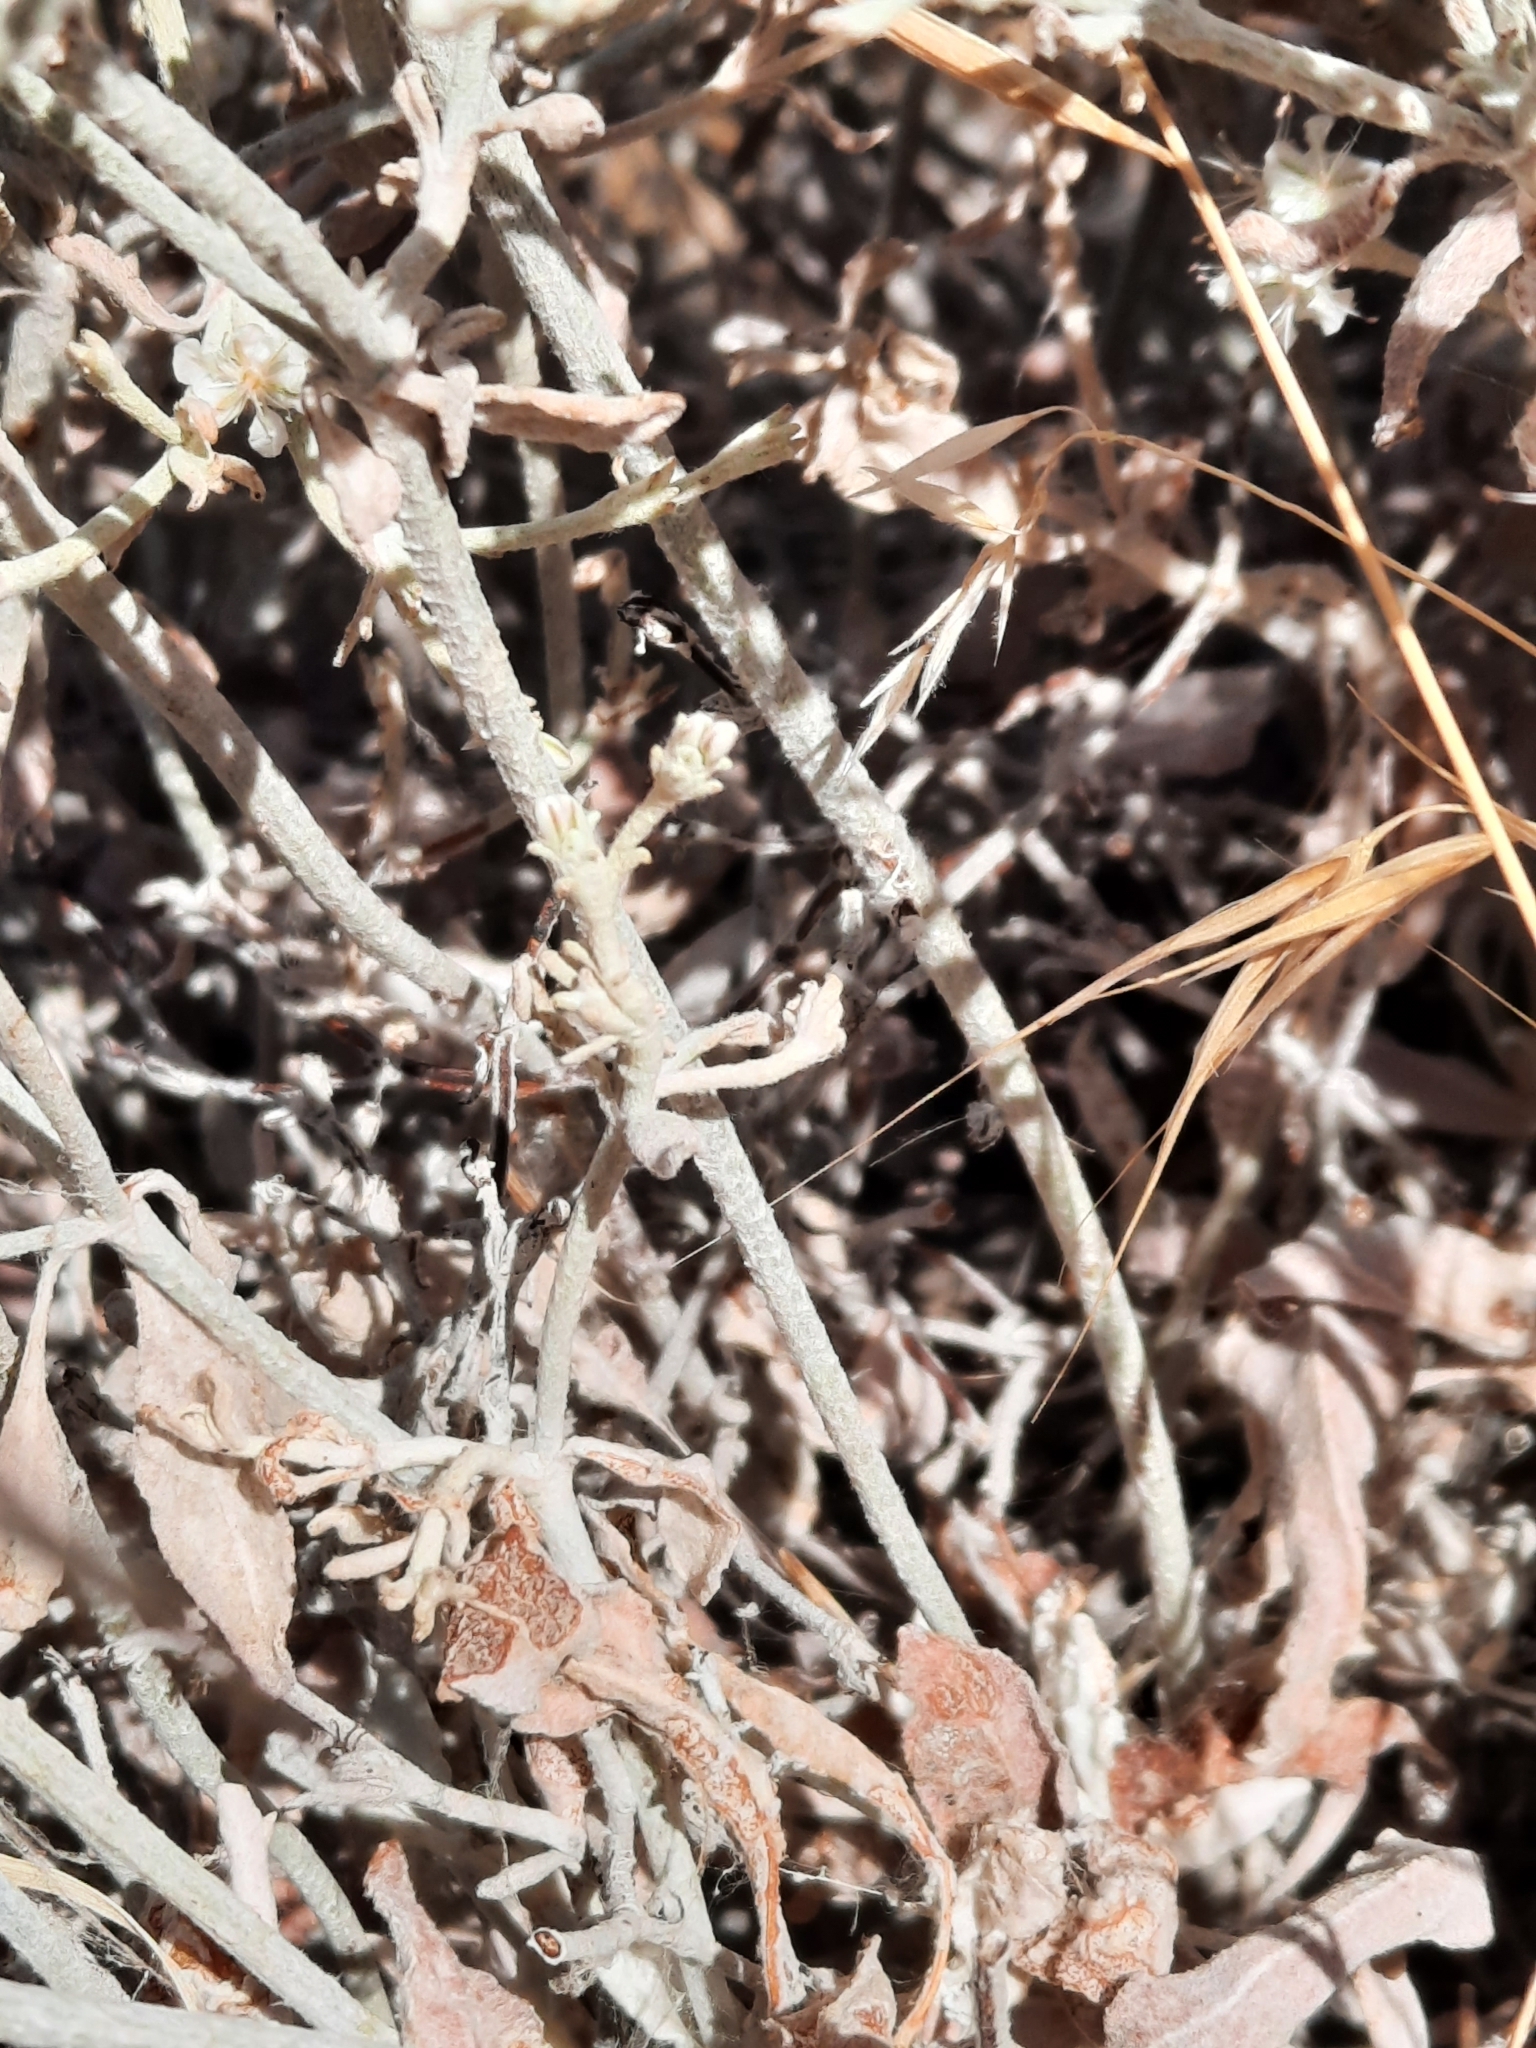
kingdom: Plantae
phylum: Tracheophyta
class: Magnoliopsida
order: Caryophyllales
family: Polygonaceae
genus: Eriogonum
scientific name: Eriogonum niveum
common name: Snow wild buckwheat
